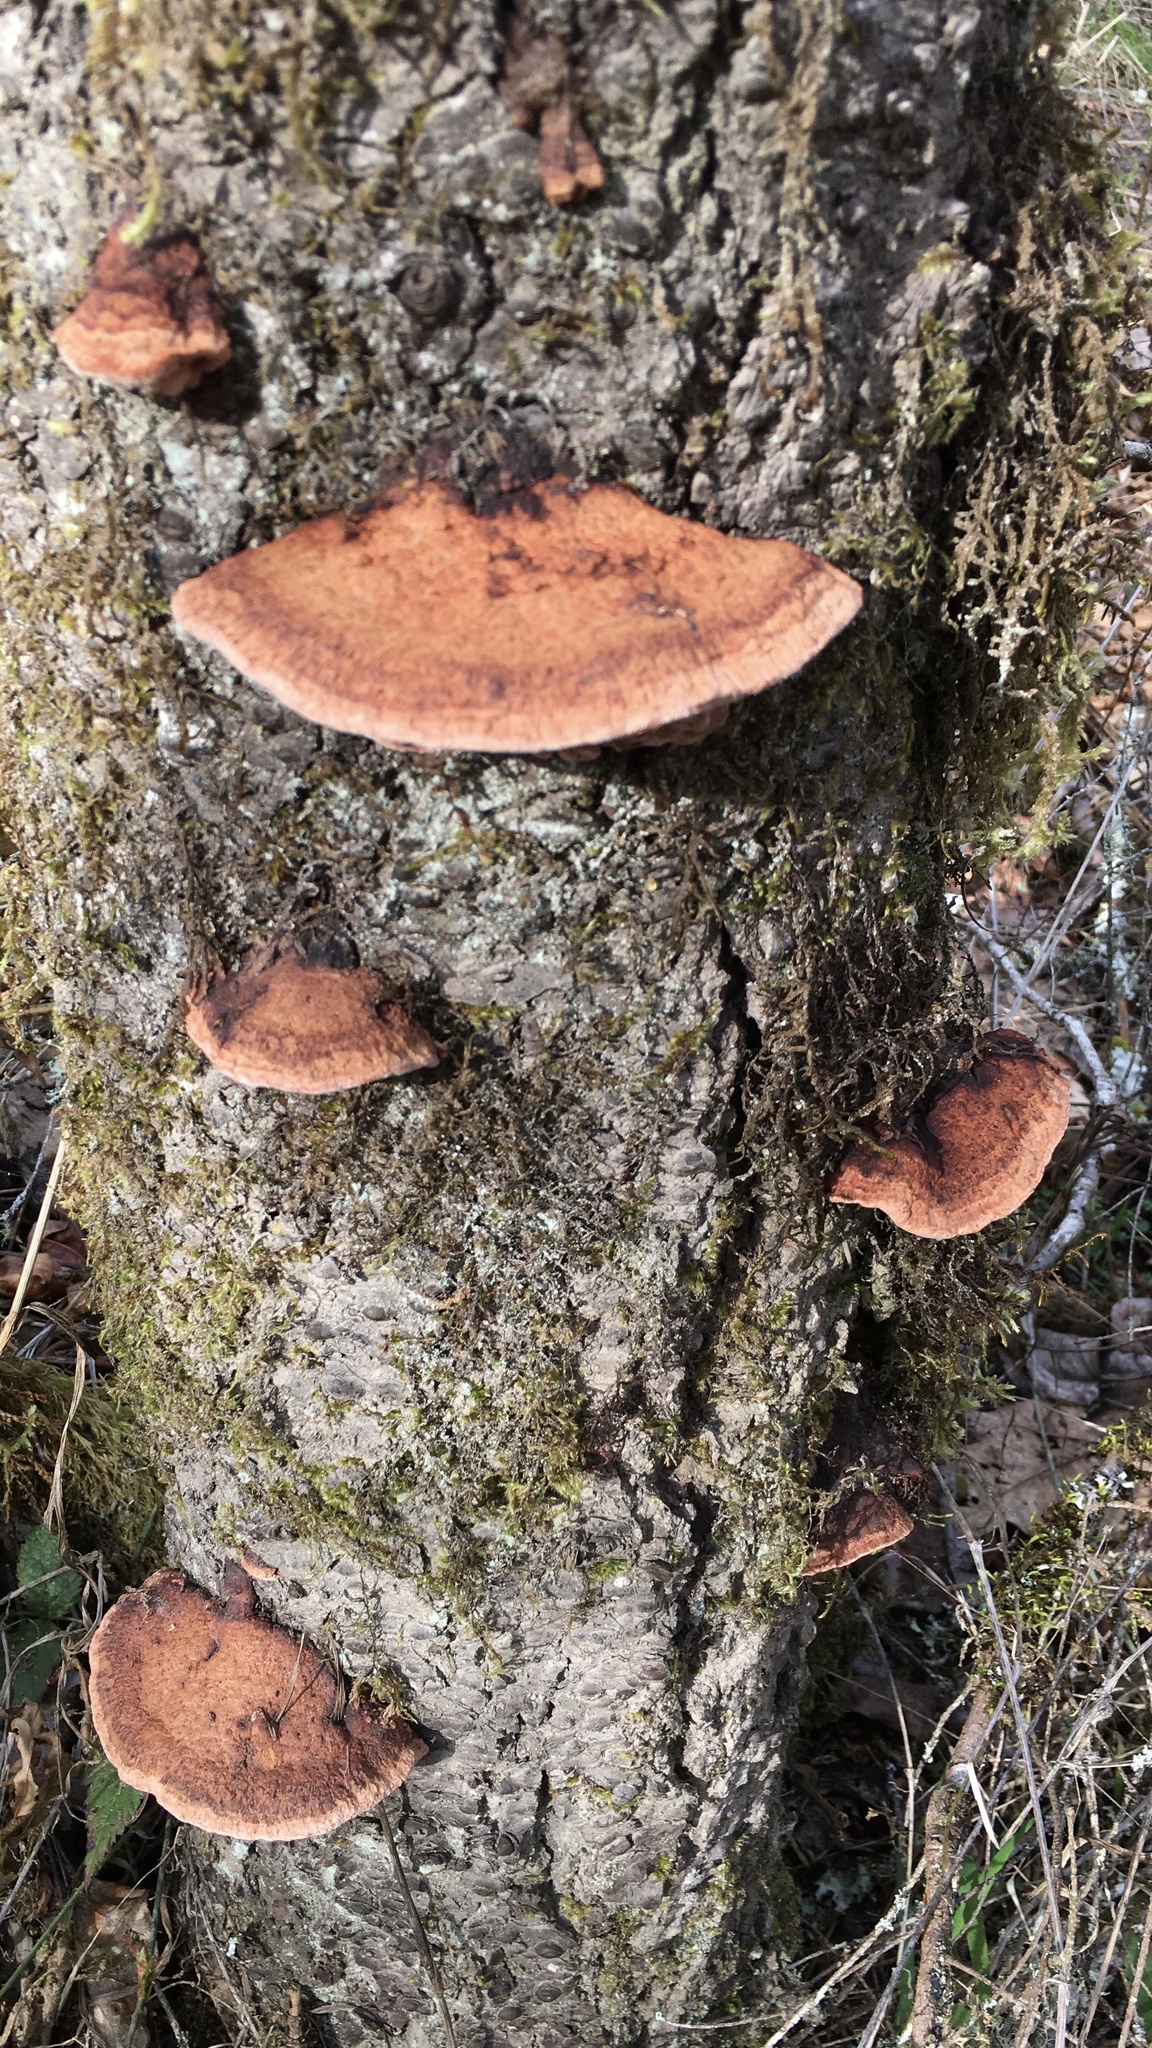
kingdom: Fungi
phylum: Basidiomycota
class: Agaricomycetes
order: Polyporales
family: Fomitopsidaceae
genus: Rhodofomes
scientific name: Rhodofomes cajanderi
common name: Rosy conk
